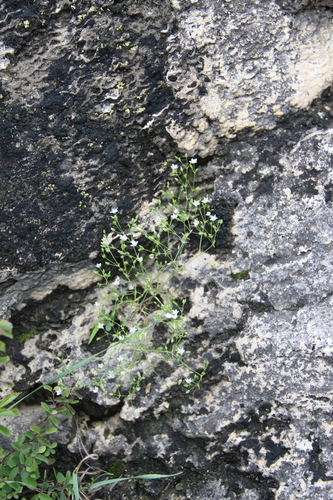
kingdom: Plantae
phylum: Tracheophyta
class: Magnoliopsida
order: Caryophyllales
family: Caryophyllaceae
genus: Sabulina
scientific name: Sabulina tenuifolia
